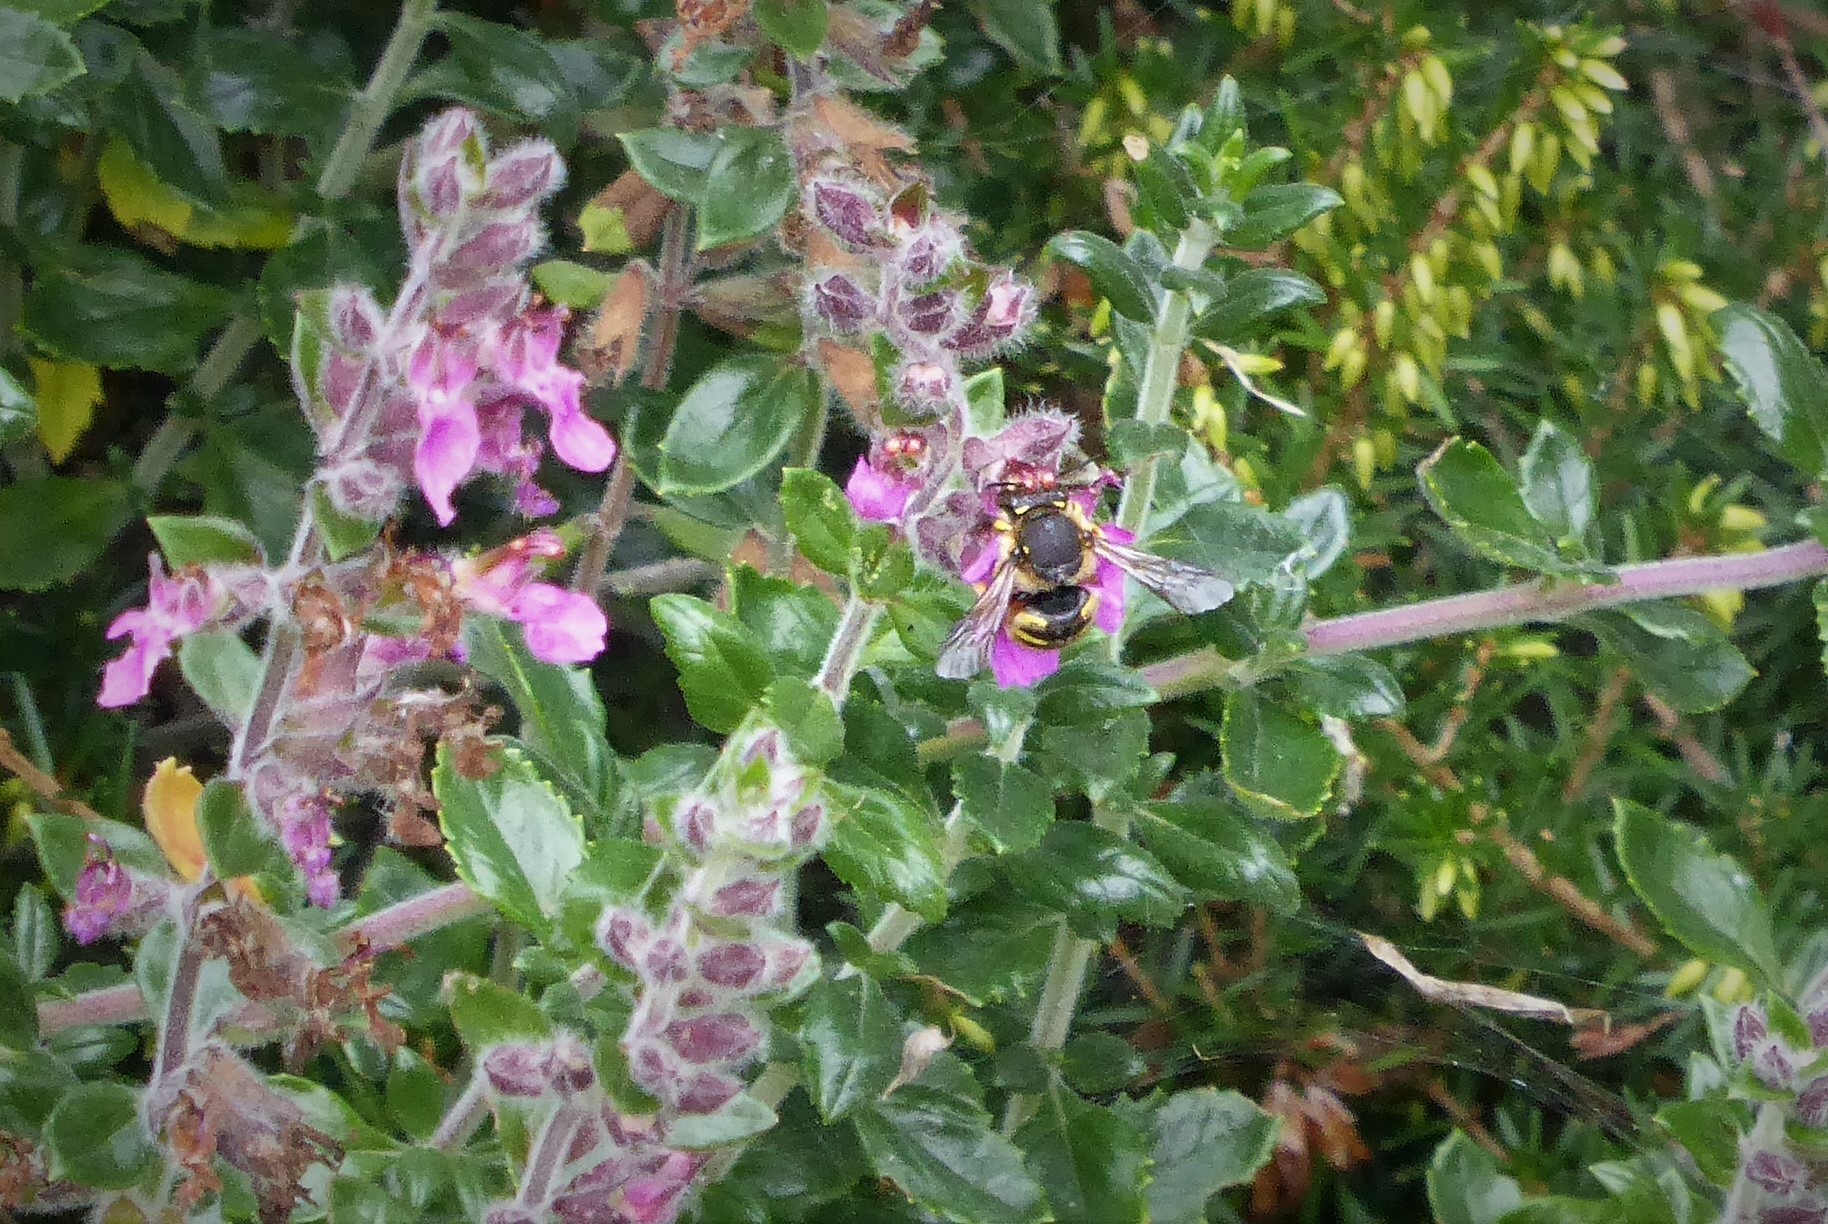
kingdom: Animalia
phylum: Arthropoda
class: Insecta
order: Hymenoptera
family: Megachilidae
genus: Anthidium
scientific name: Anthidium manicatum
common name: Wool carder bee
